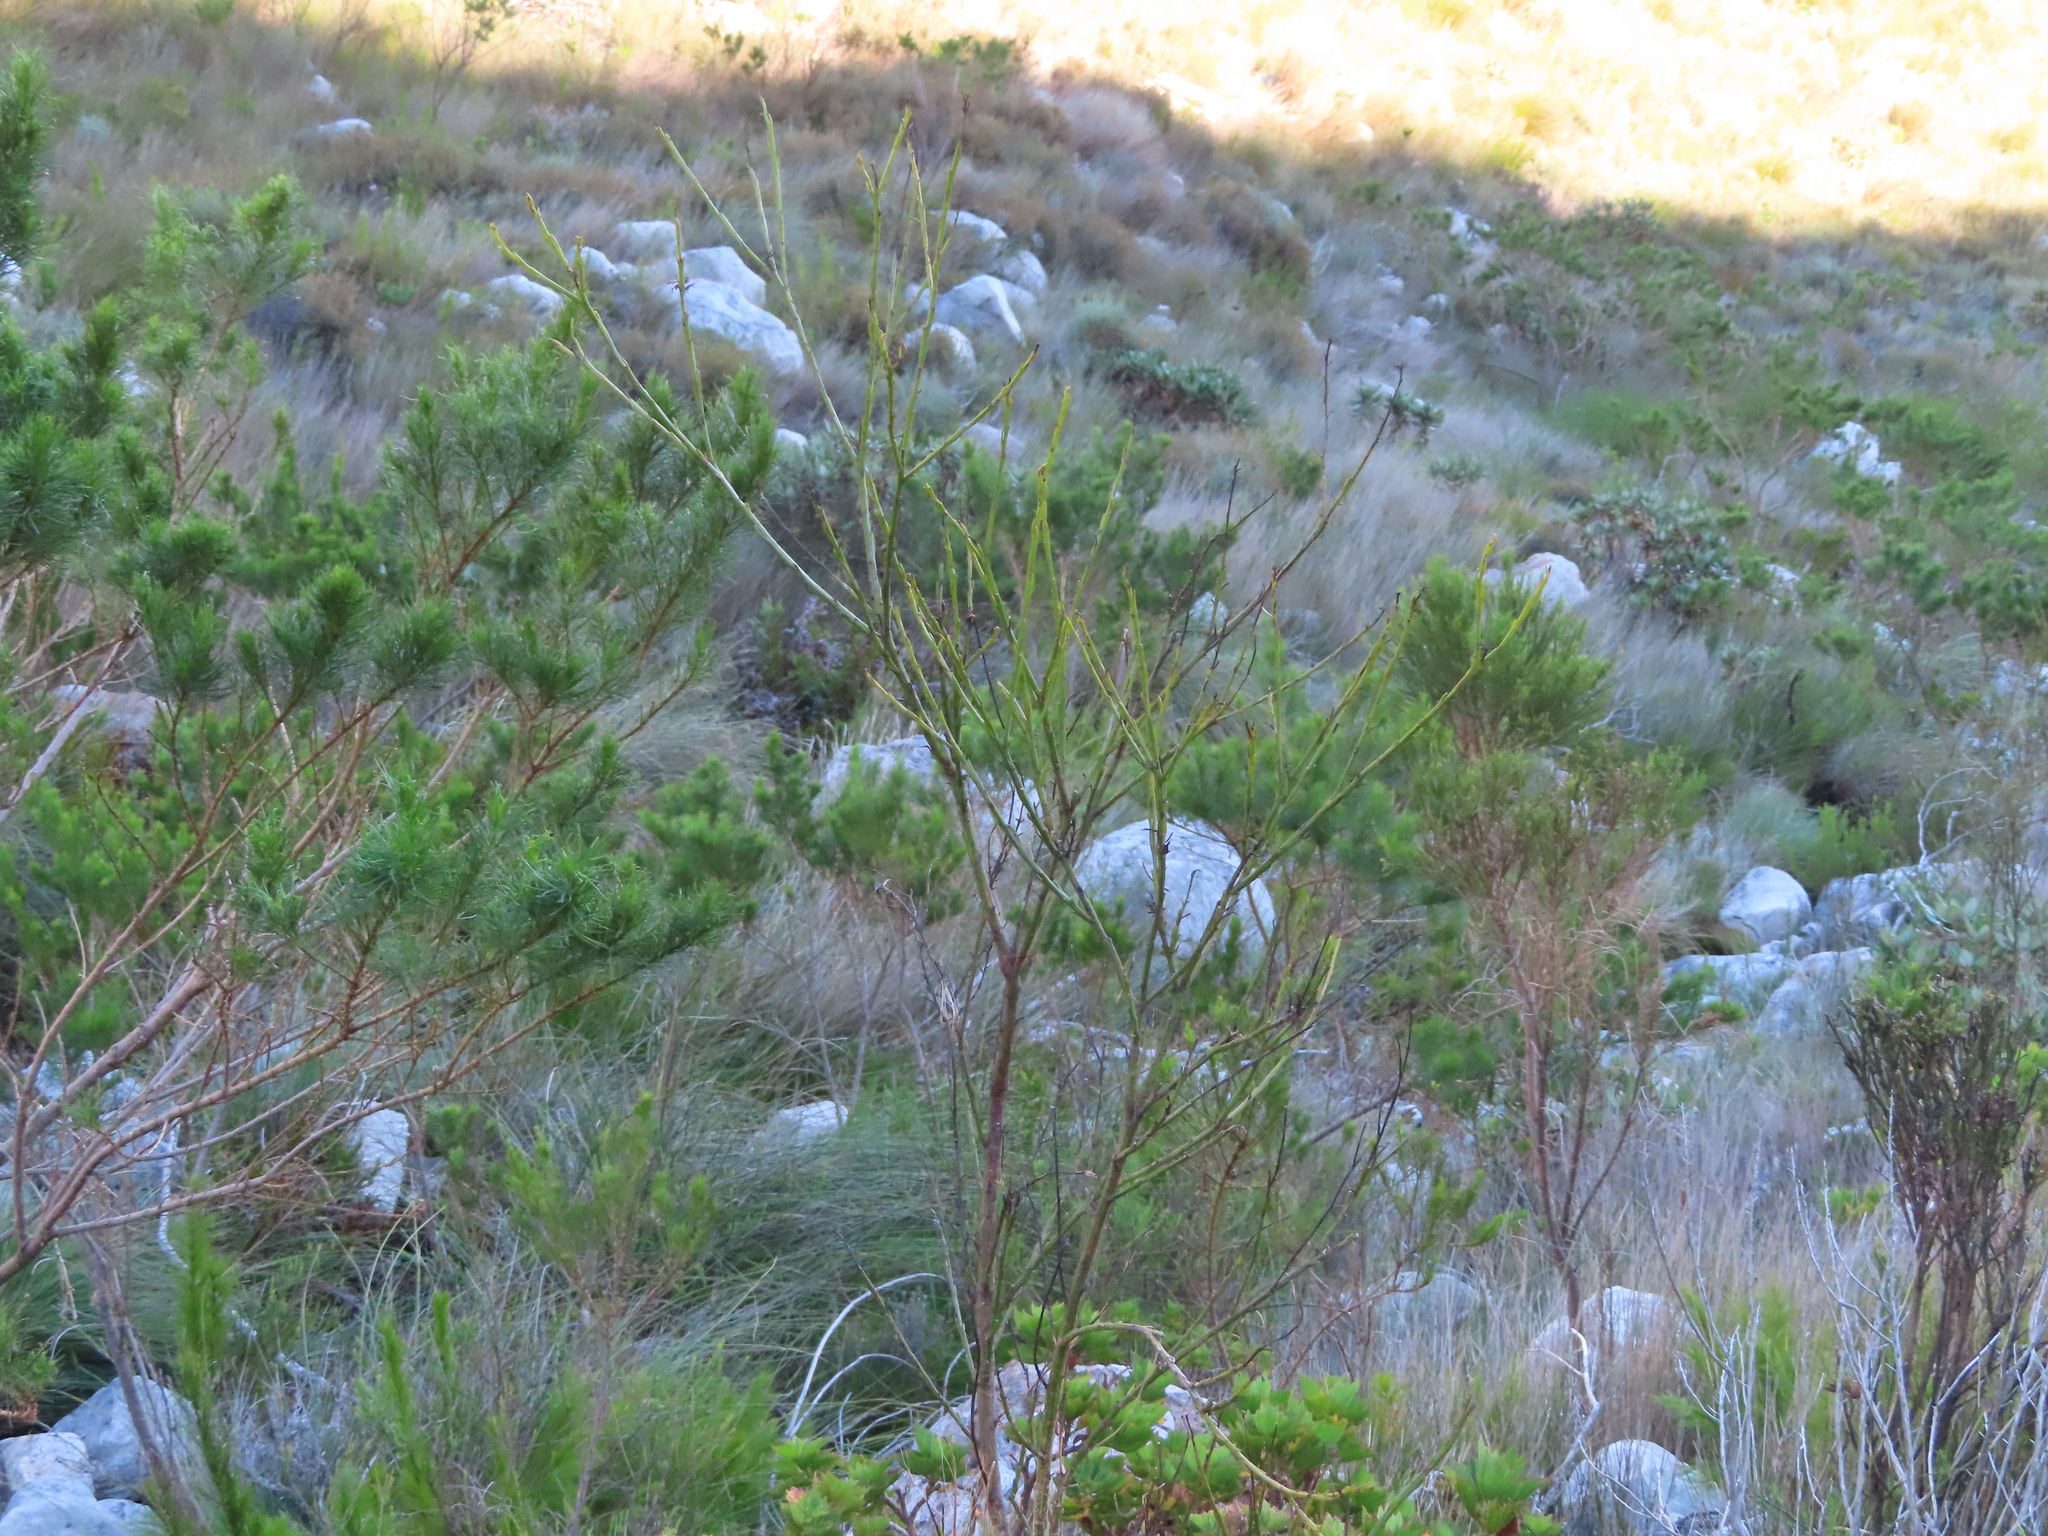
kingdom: Plantae
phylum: Tracheophyta
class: Magnoliopsida
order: Santalales
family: Thesiaceae
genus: Thesium
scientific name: Thesium strictum
